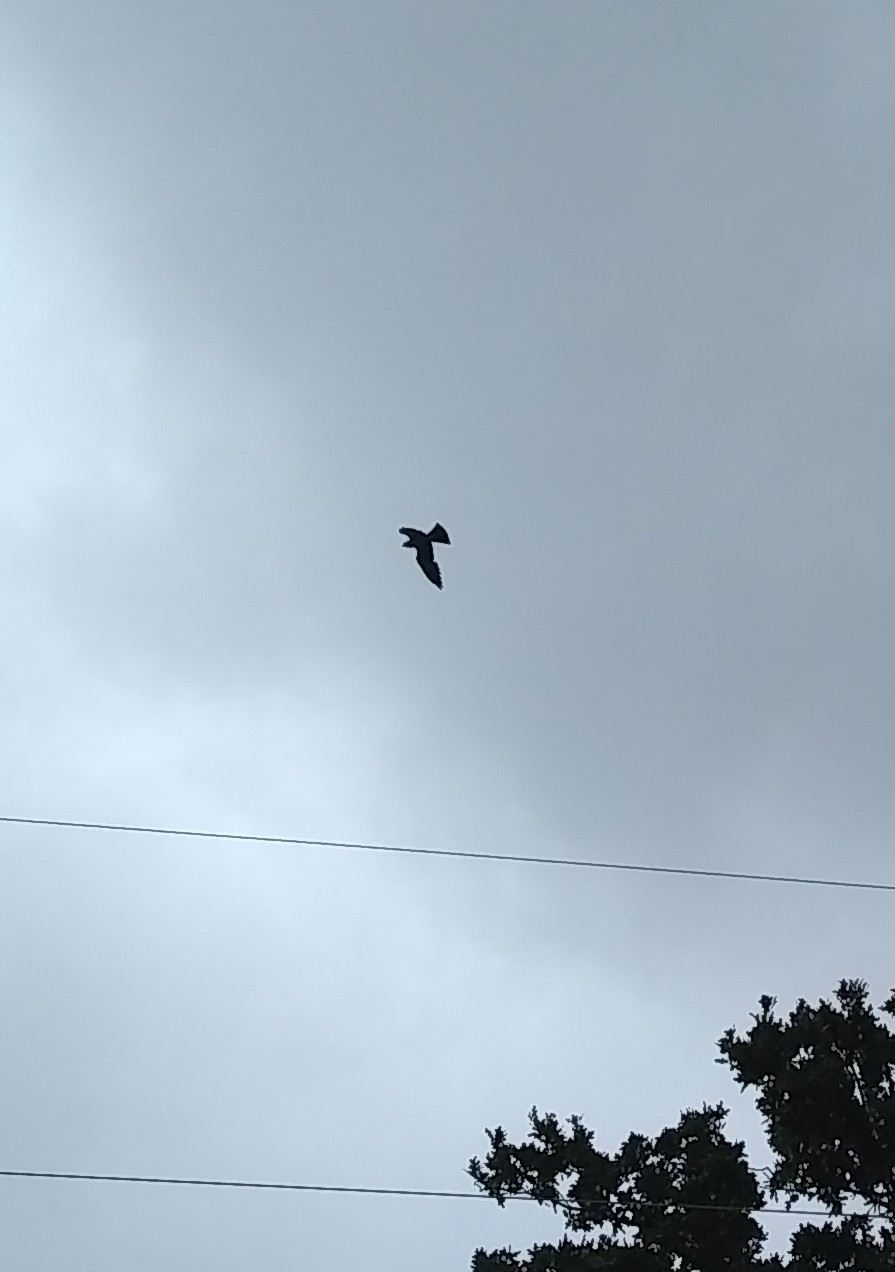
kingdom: Animalia
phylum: Chordata
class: Aves
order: Accipitriformes
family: Accipitridae
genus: Ictinia
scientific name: Ictinia mississippiensis
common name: Mississippi kite
